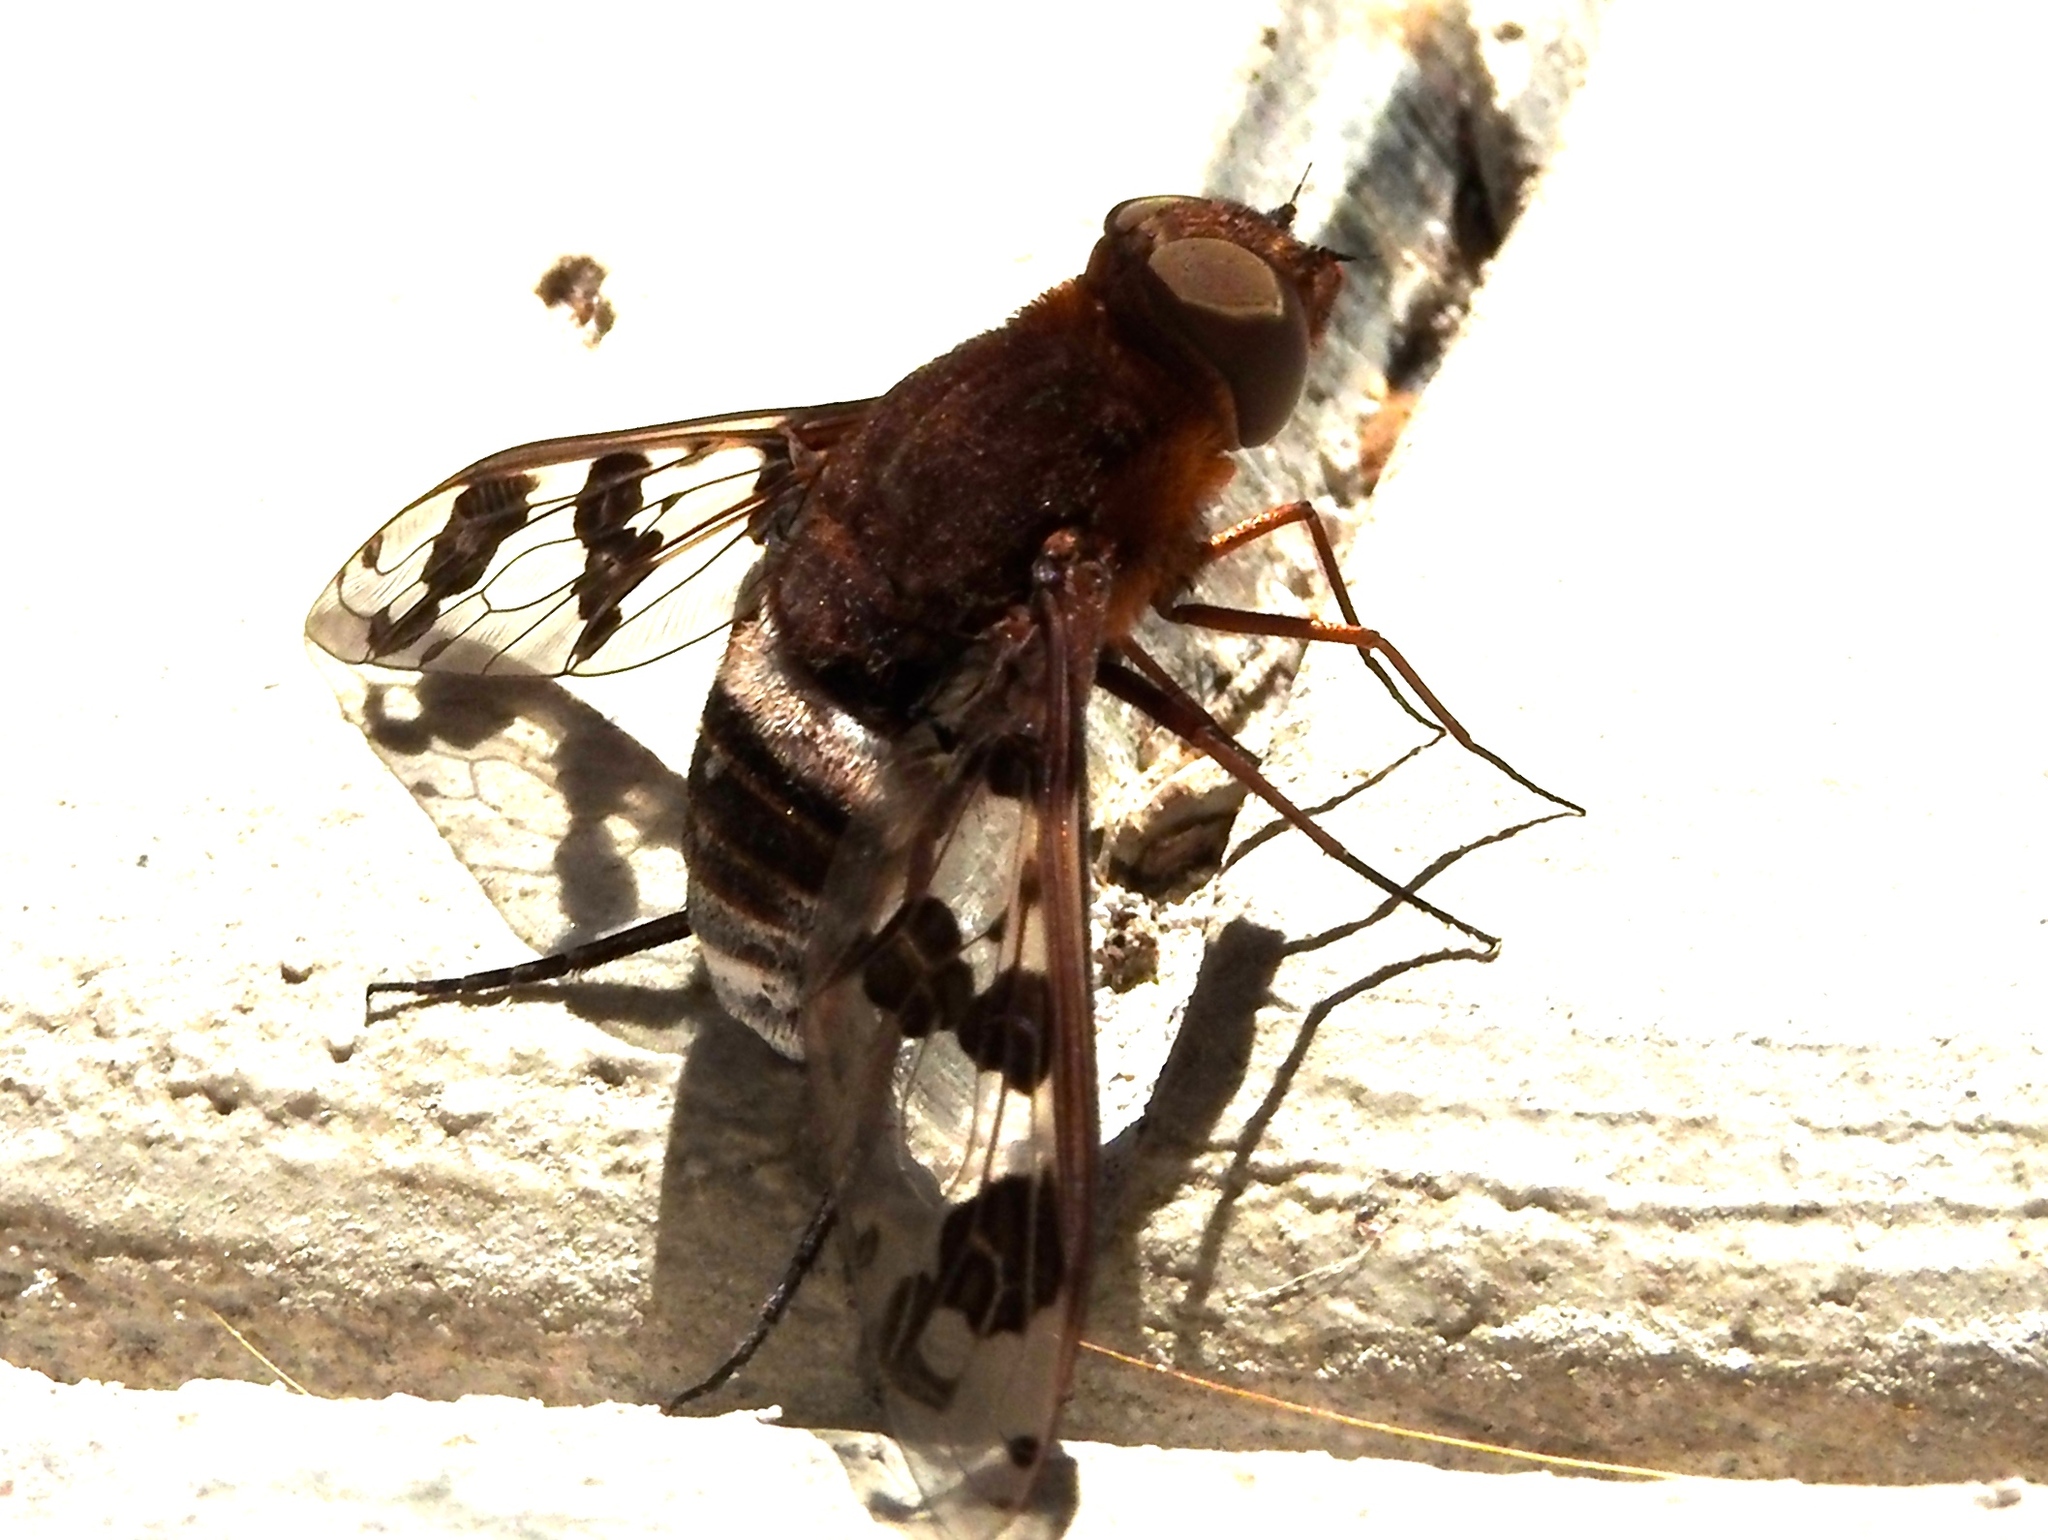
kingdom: Animalia
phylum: Arthropoda
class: Insecta
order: Diptera
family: Bombyliidae
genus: Nyia
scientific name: Nyia latreillei
